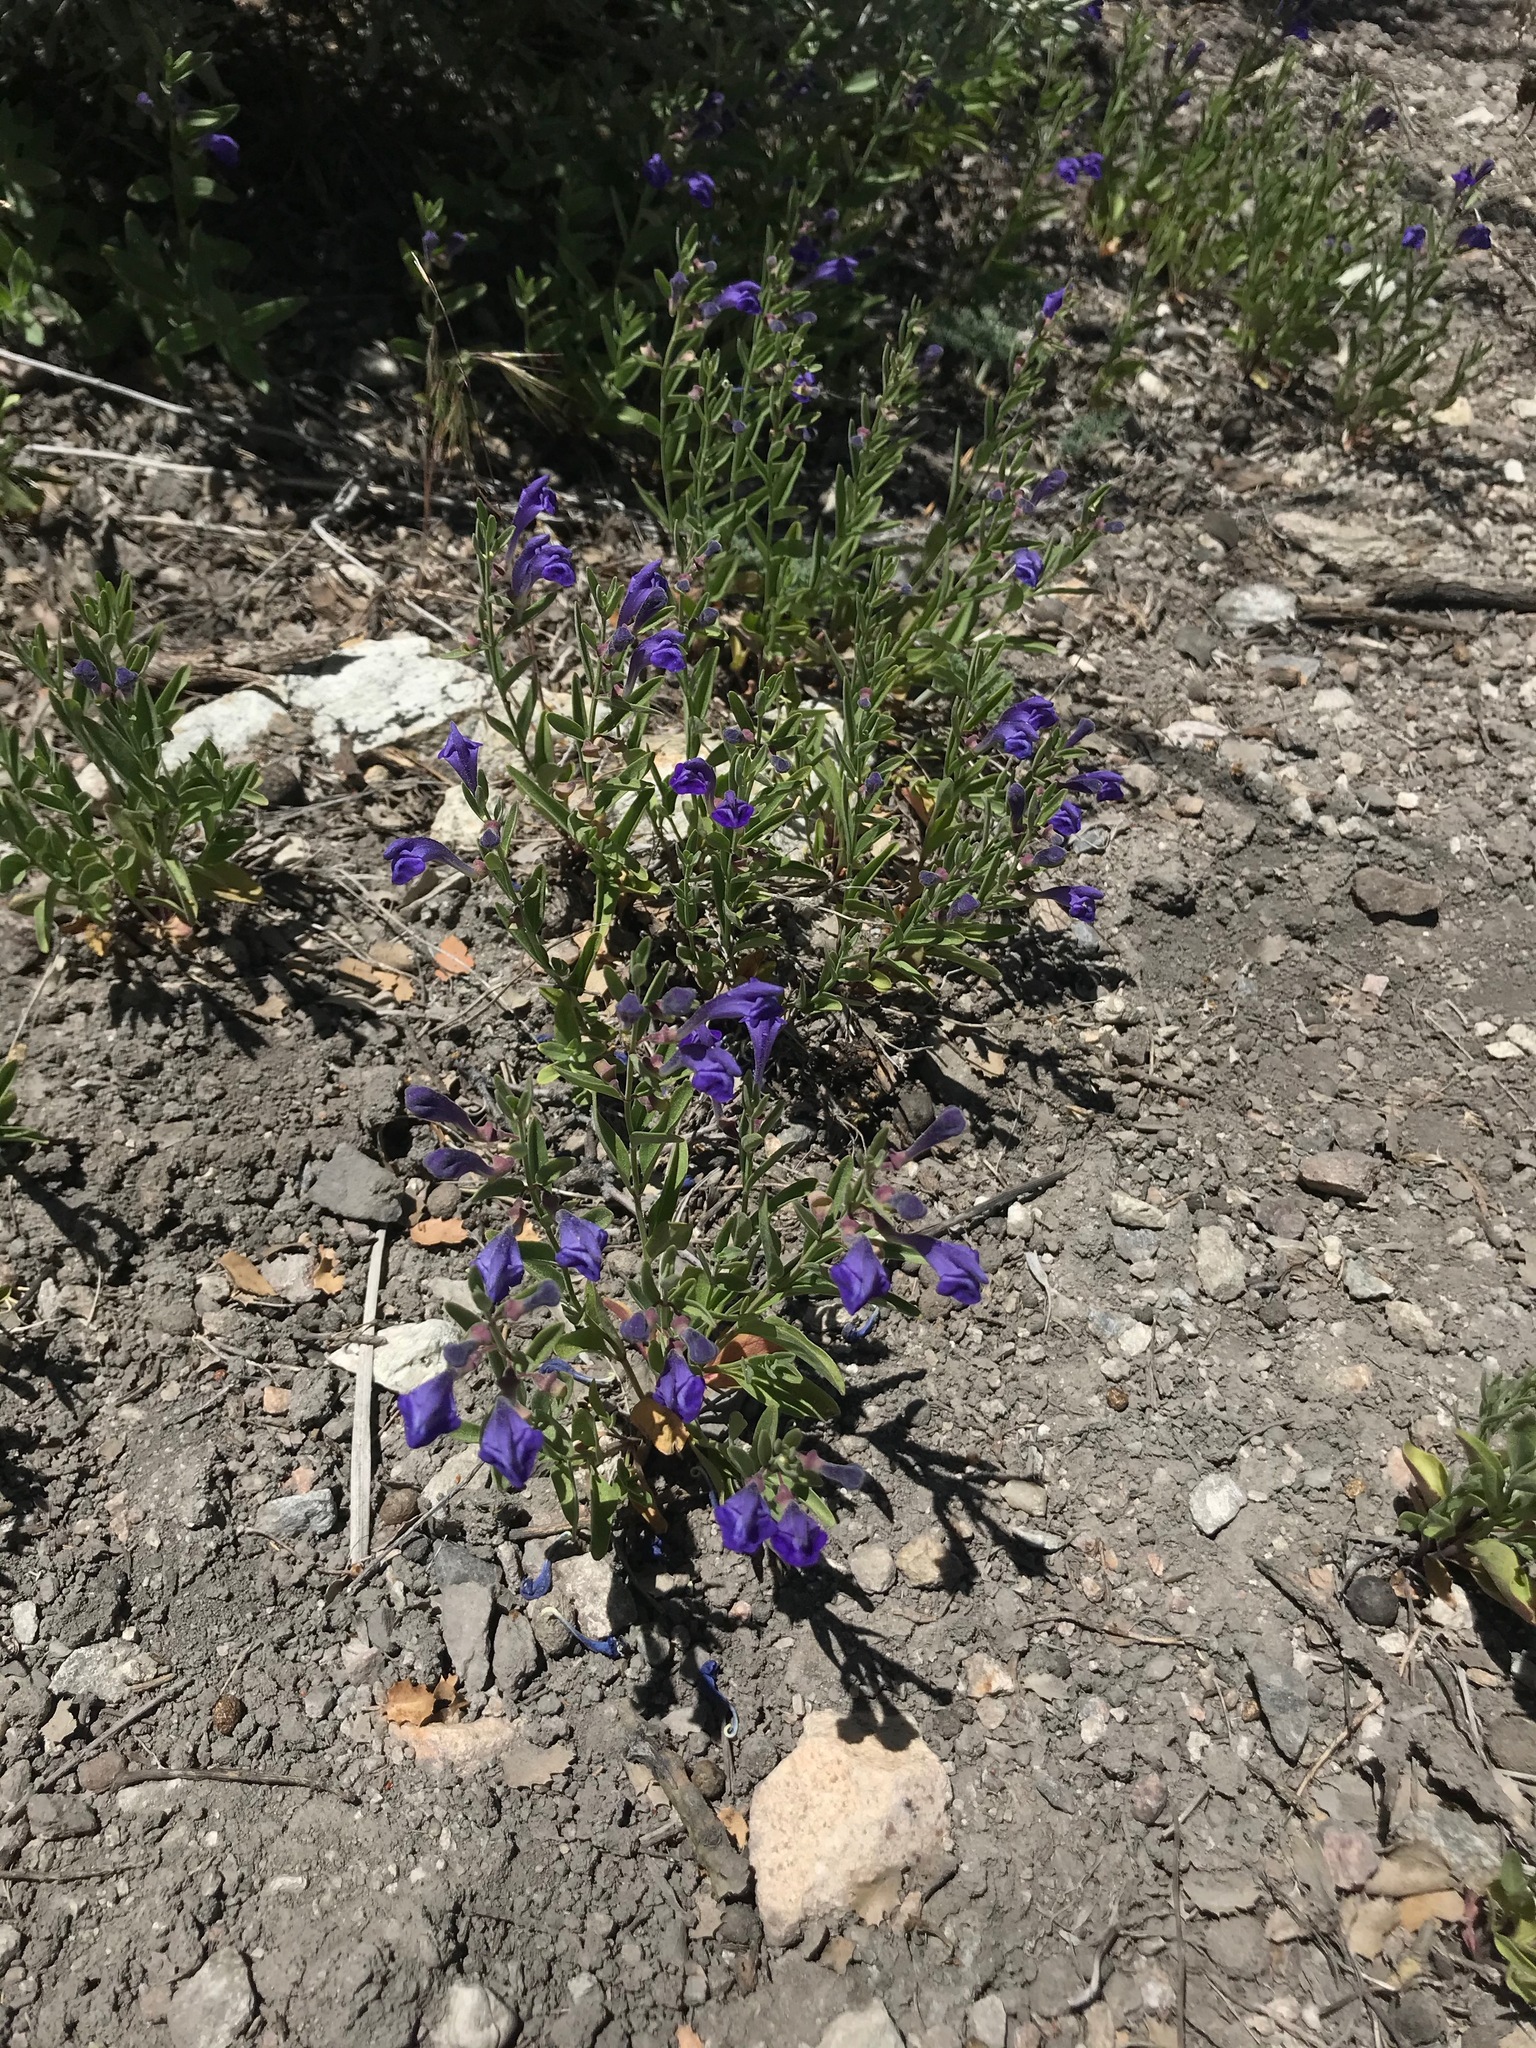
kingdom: Plantae
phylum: Tracheophyta
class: Magnoliopsida
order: Lamiales
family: Lamiaceae
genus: Scutellaria
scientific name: Scutellaria siphocampyloides
